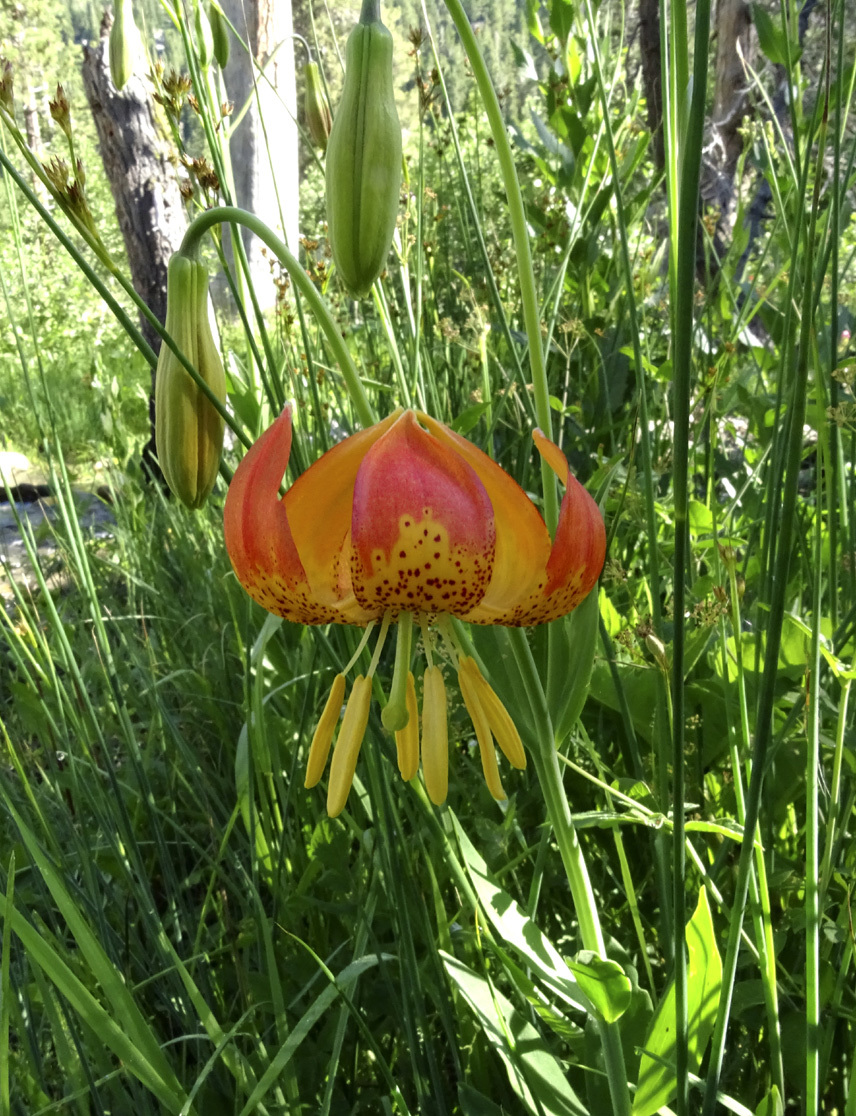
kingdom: Plantae
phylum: Tracheophyta
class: Liliopsida
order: Liliales
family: Liliaceae
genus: Lilium
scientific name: Lilium pardalinum
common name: Panther lily
